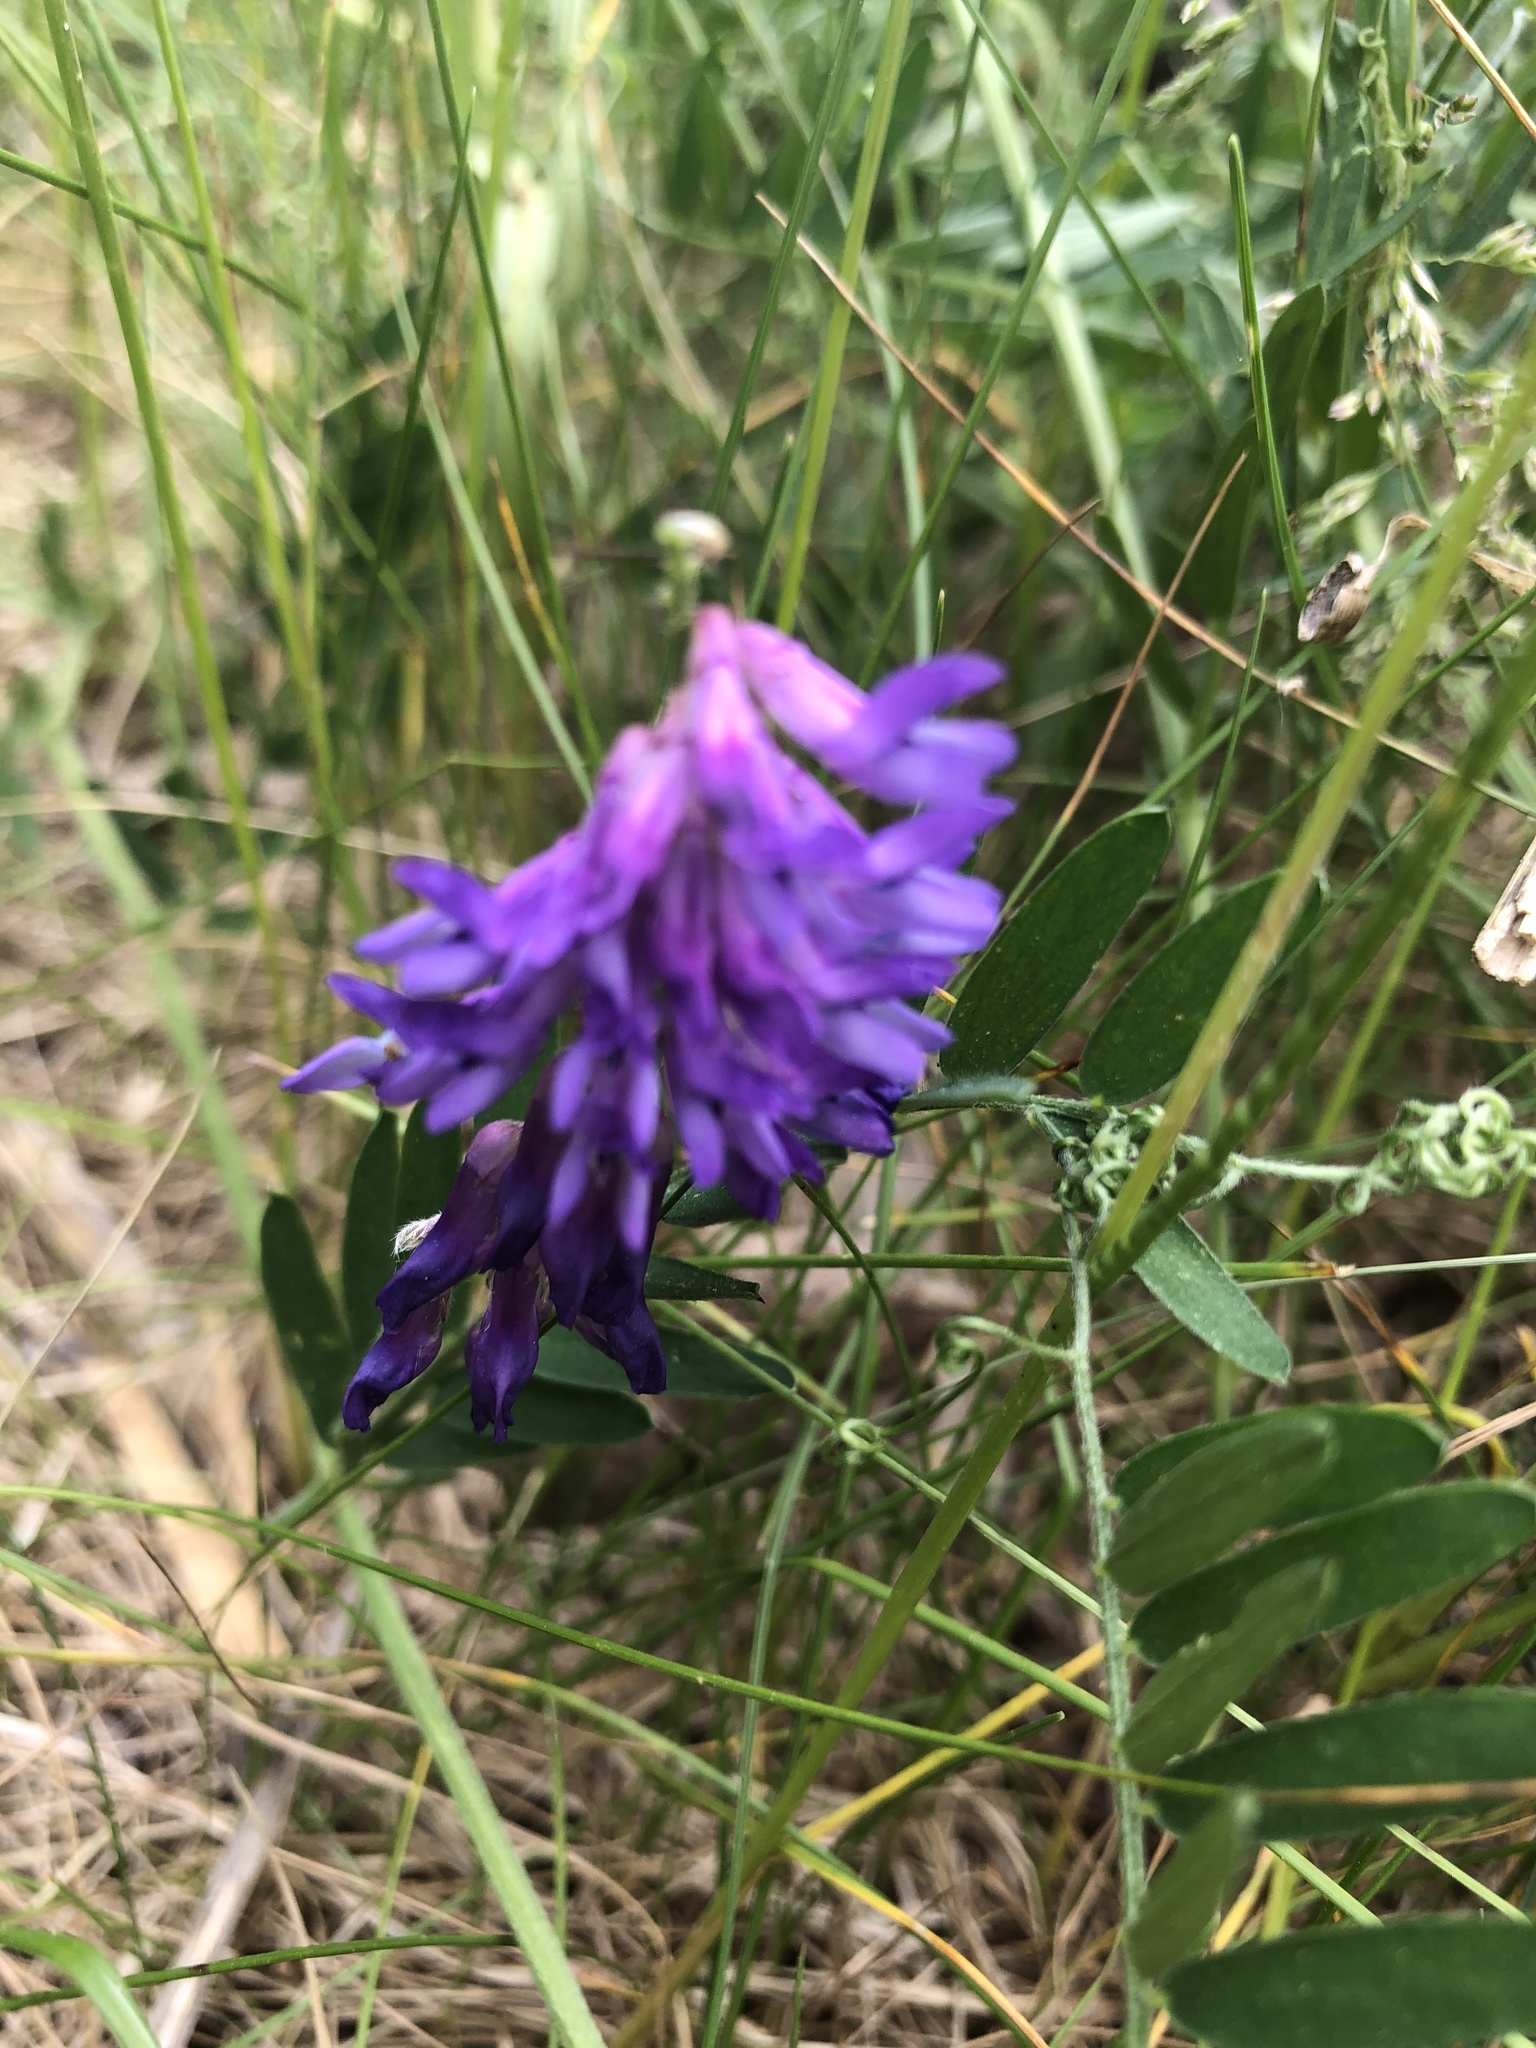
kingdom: Plantae
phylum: Tracheophyta
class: Magnoliopsida
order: Fabales
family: Fabaceae
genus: Vicia
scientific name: Vicia cracca
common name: Bird vetch
